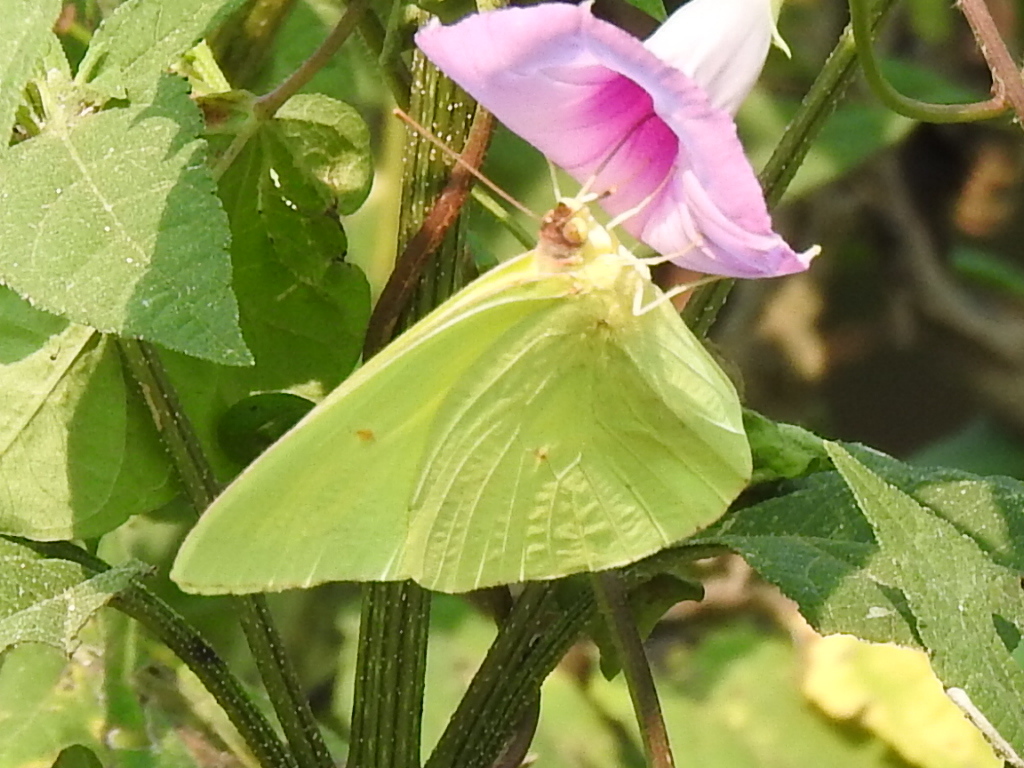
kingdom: Animalia
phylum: Arthropoda
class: Insecta
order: Lepidoptera
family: Pieridae
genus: Phoebis
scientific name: Phoebis sennae
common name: Cloudless sulphur
